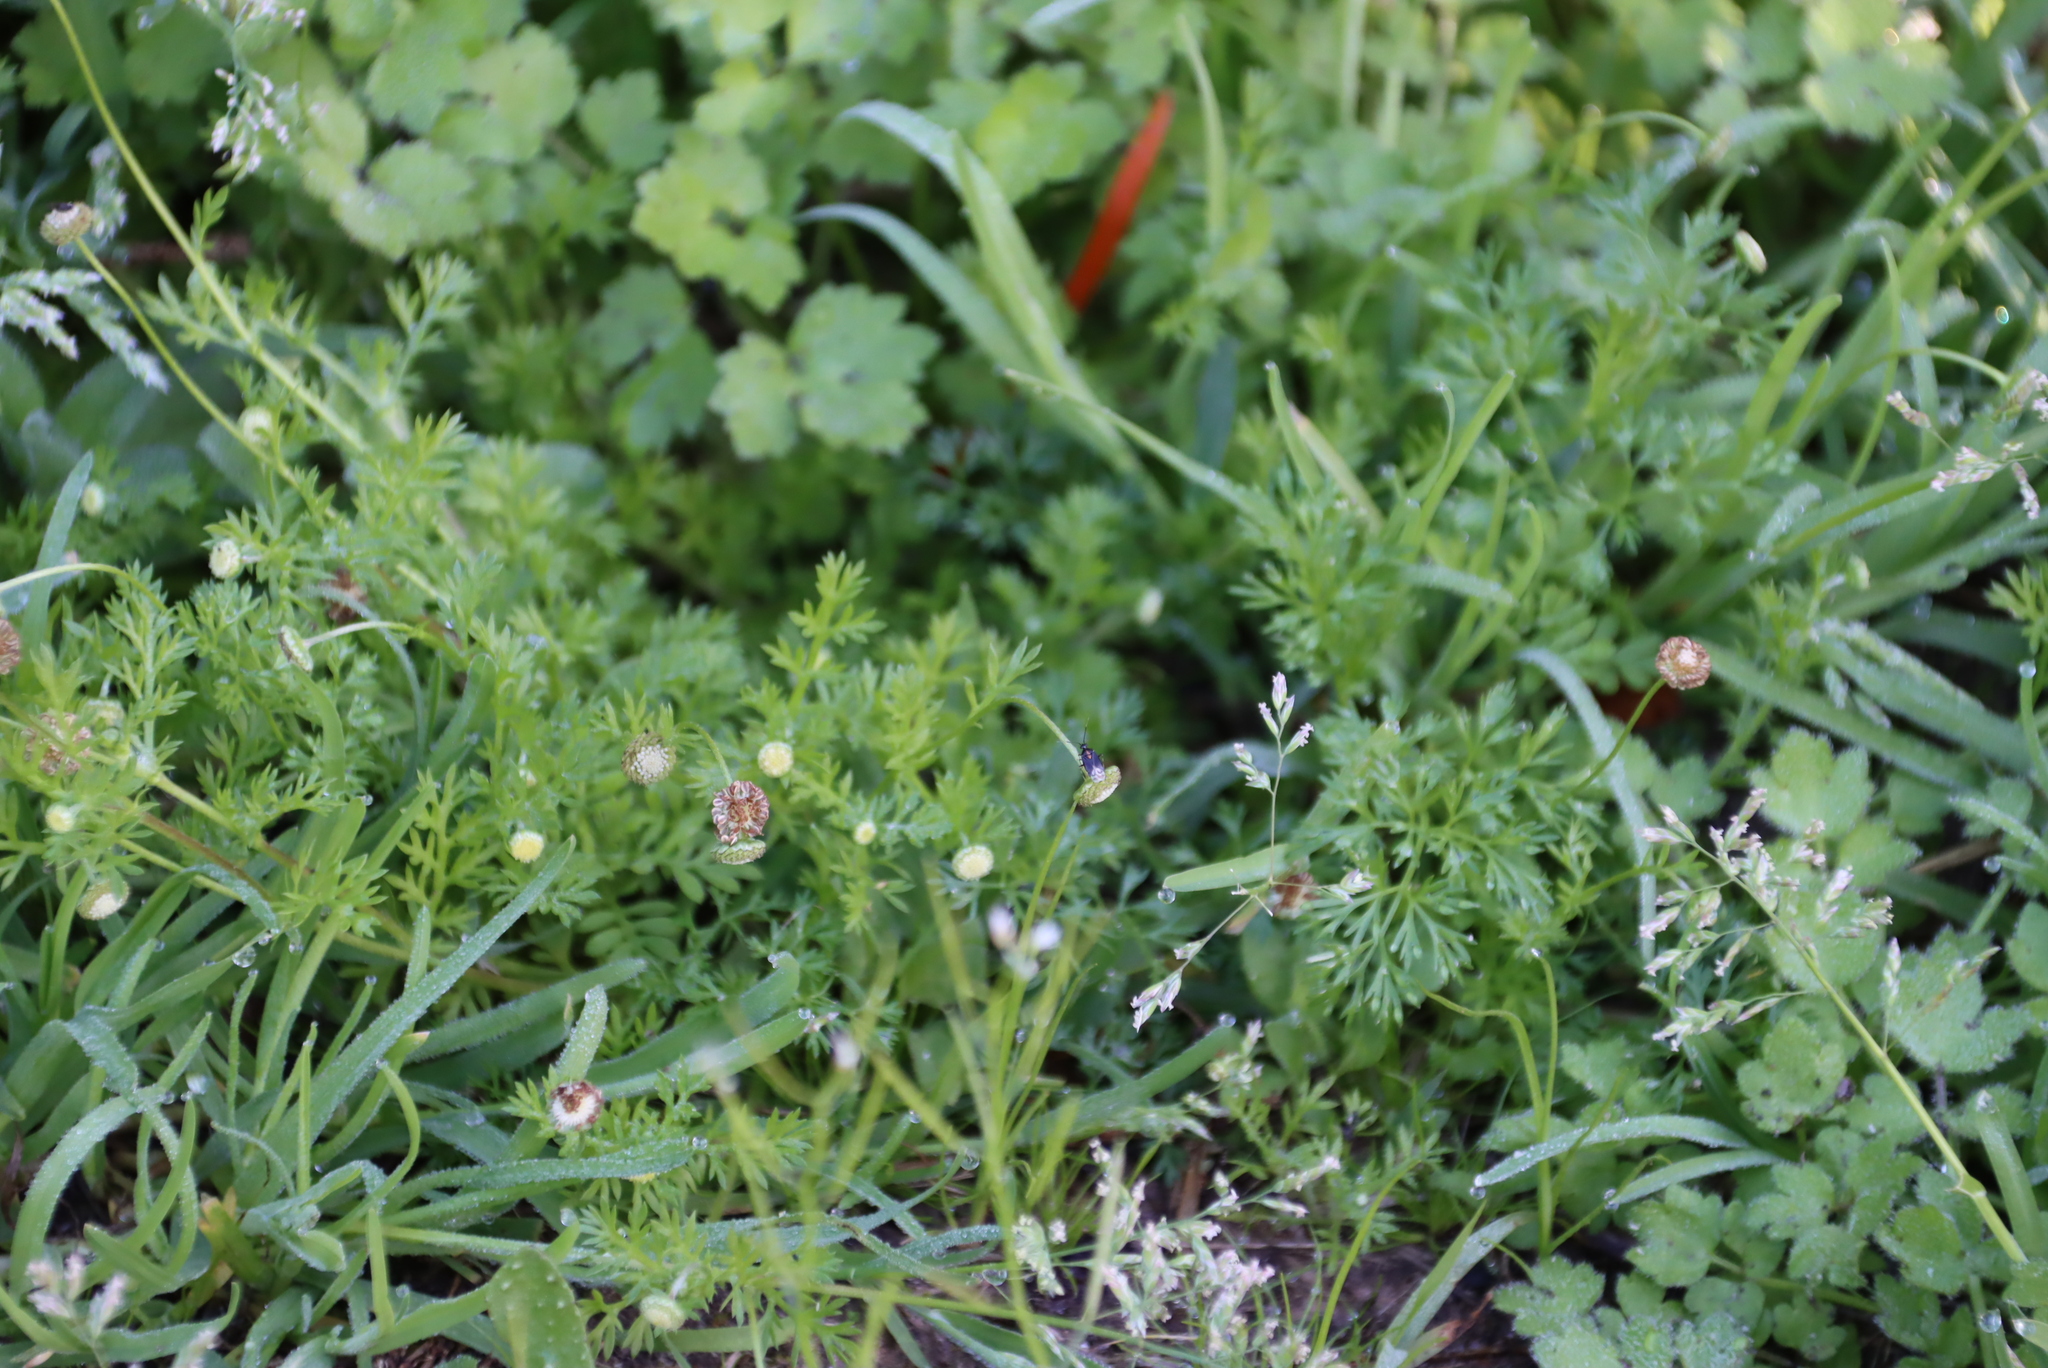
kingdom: Plantae
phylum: Tracheophyta
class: Magnoliopsida
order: Asterales
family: Asteraceae
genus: Cotula
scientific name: Cotula australis
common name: Australian waterbuttons
